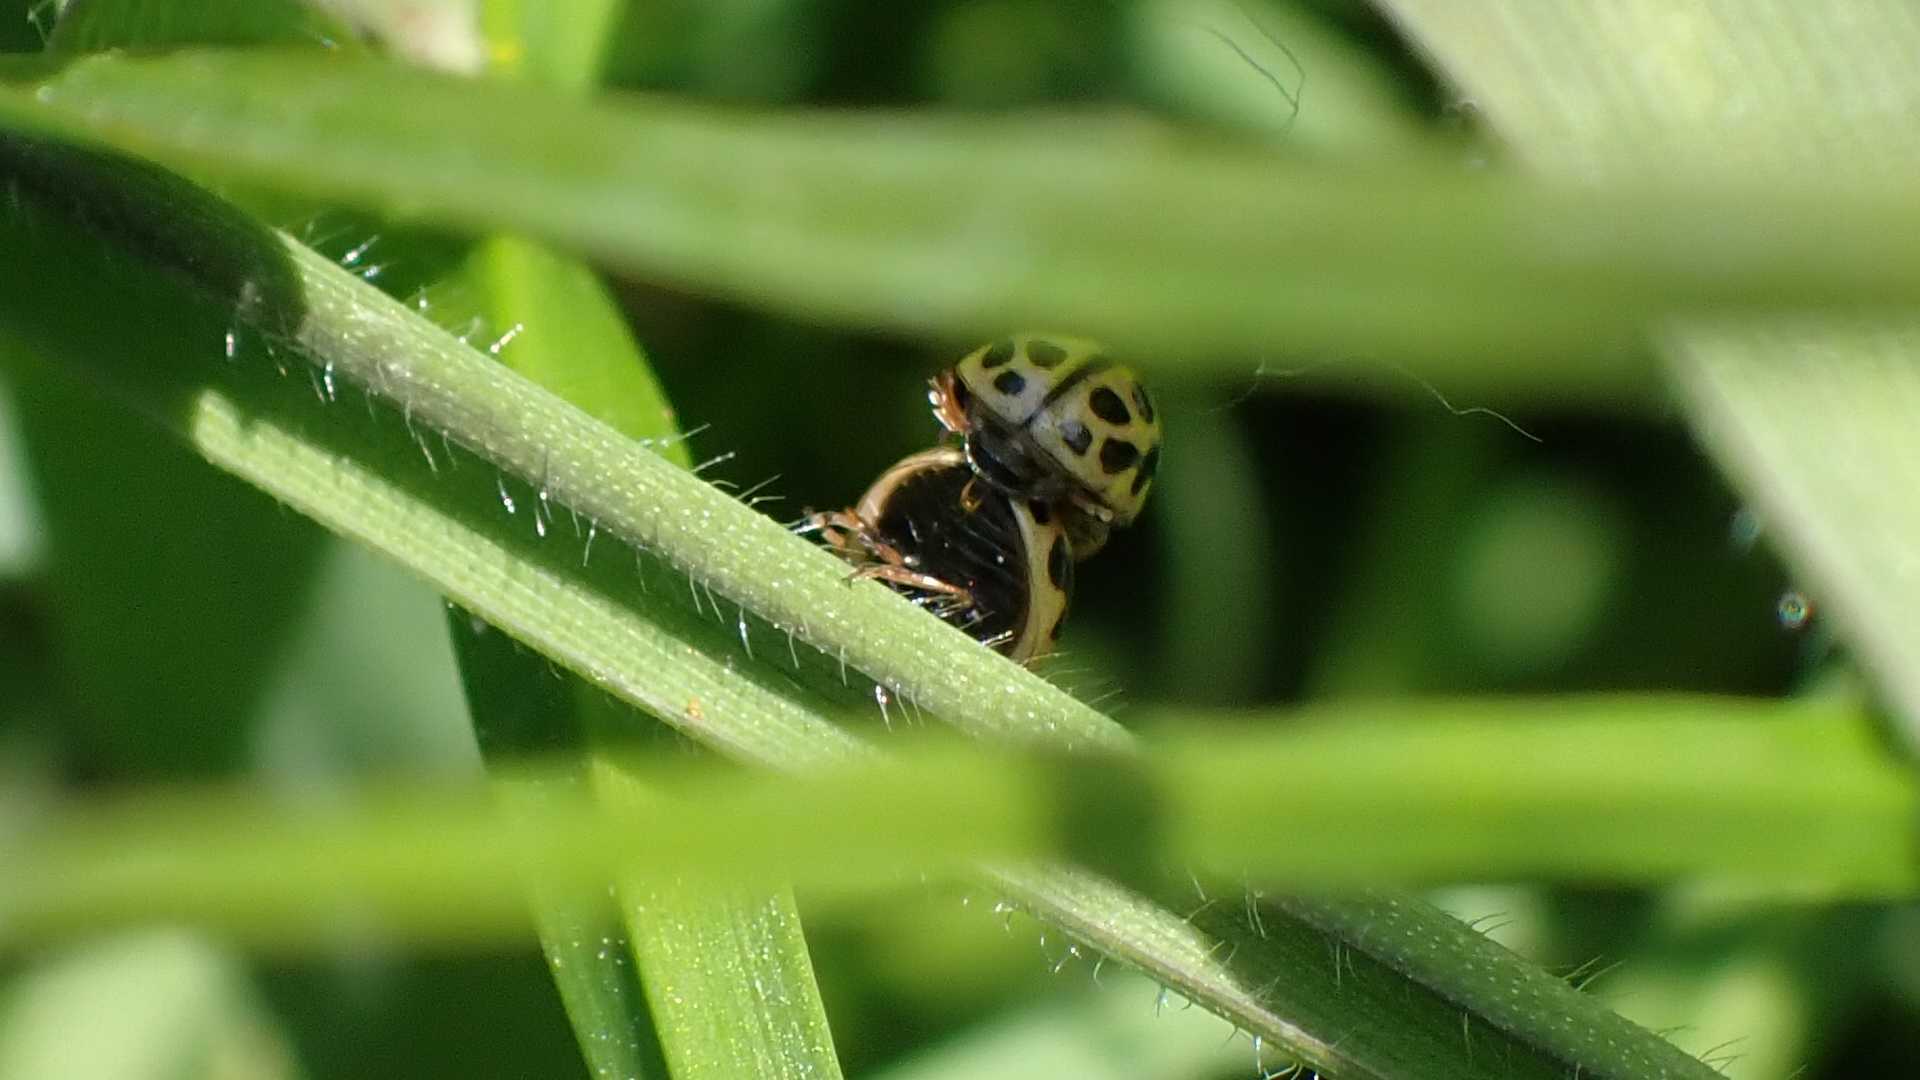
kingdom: Animalia
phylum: Arthropoda
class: Insecta
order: Coleoptera
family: Coccinellidae
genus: Tytthaspis
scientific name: Tytthaspis sedecimpunctata
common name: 16-spot ladybird
